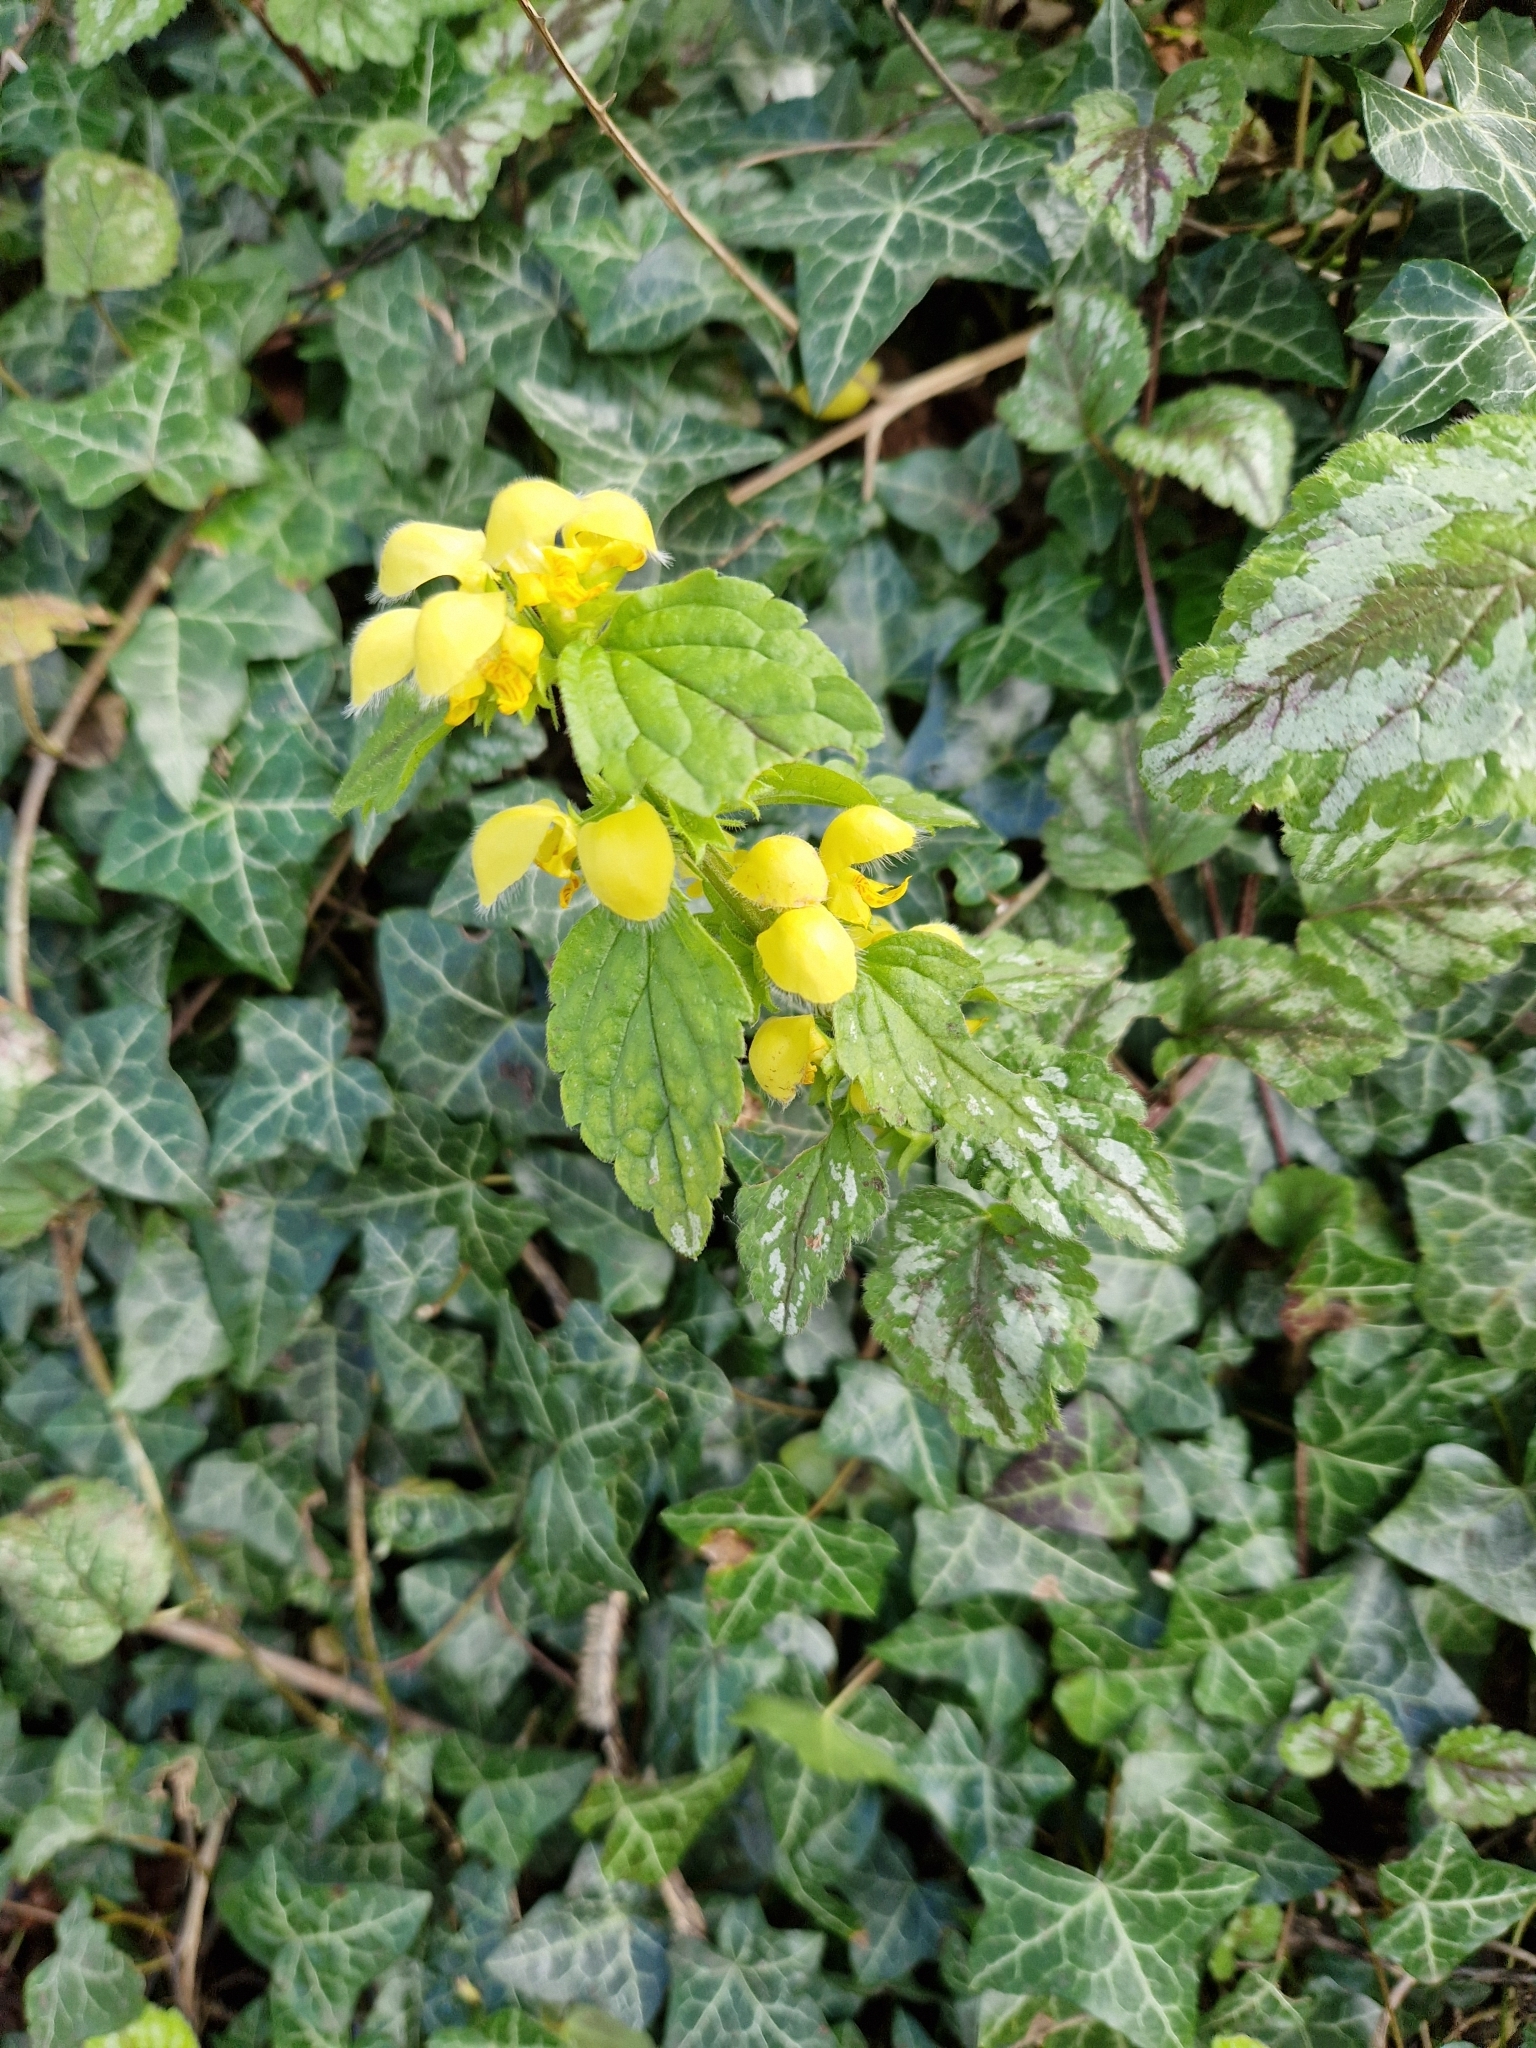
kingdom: Plantae
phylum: Tracheophyta
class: Magnoliopsida
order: Lamiales
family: Lamiaceae
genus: Lamium
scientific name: Lamium galeobdolon
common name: Yellow archangel
